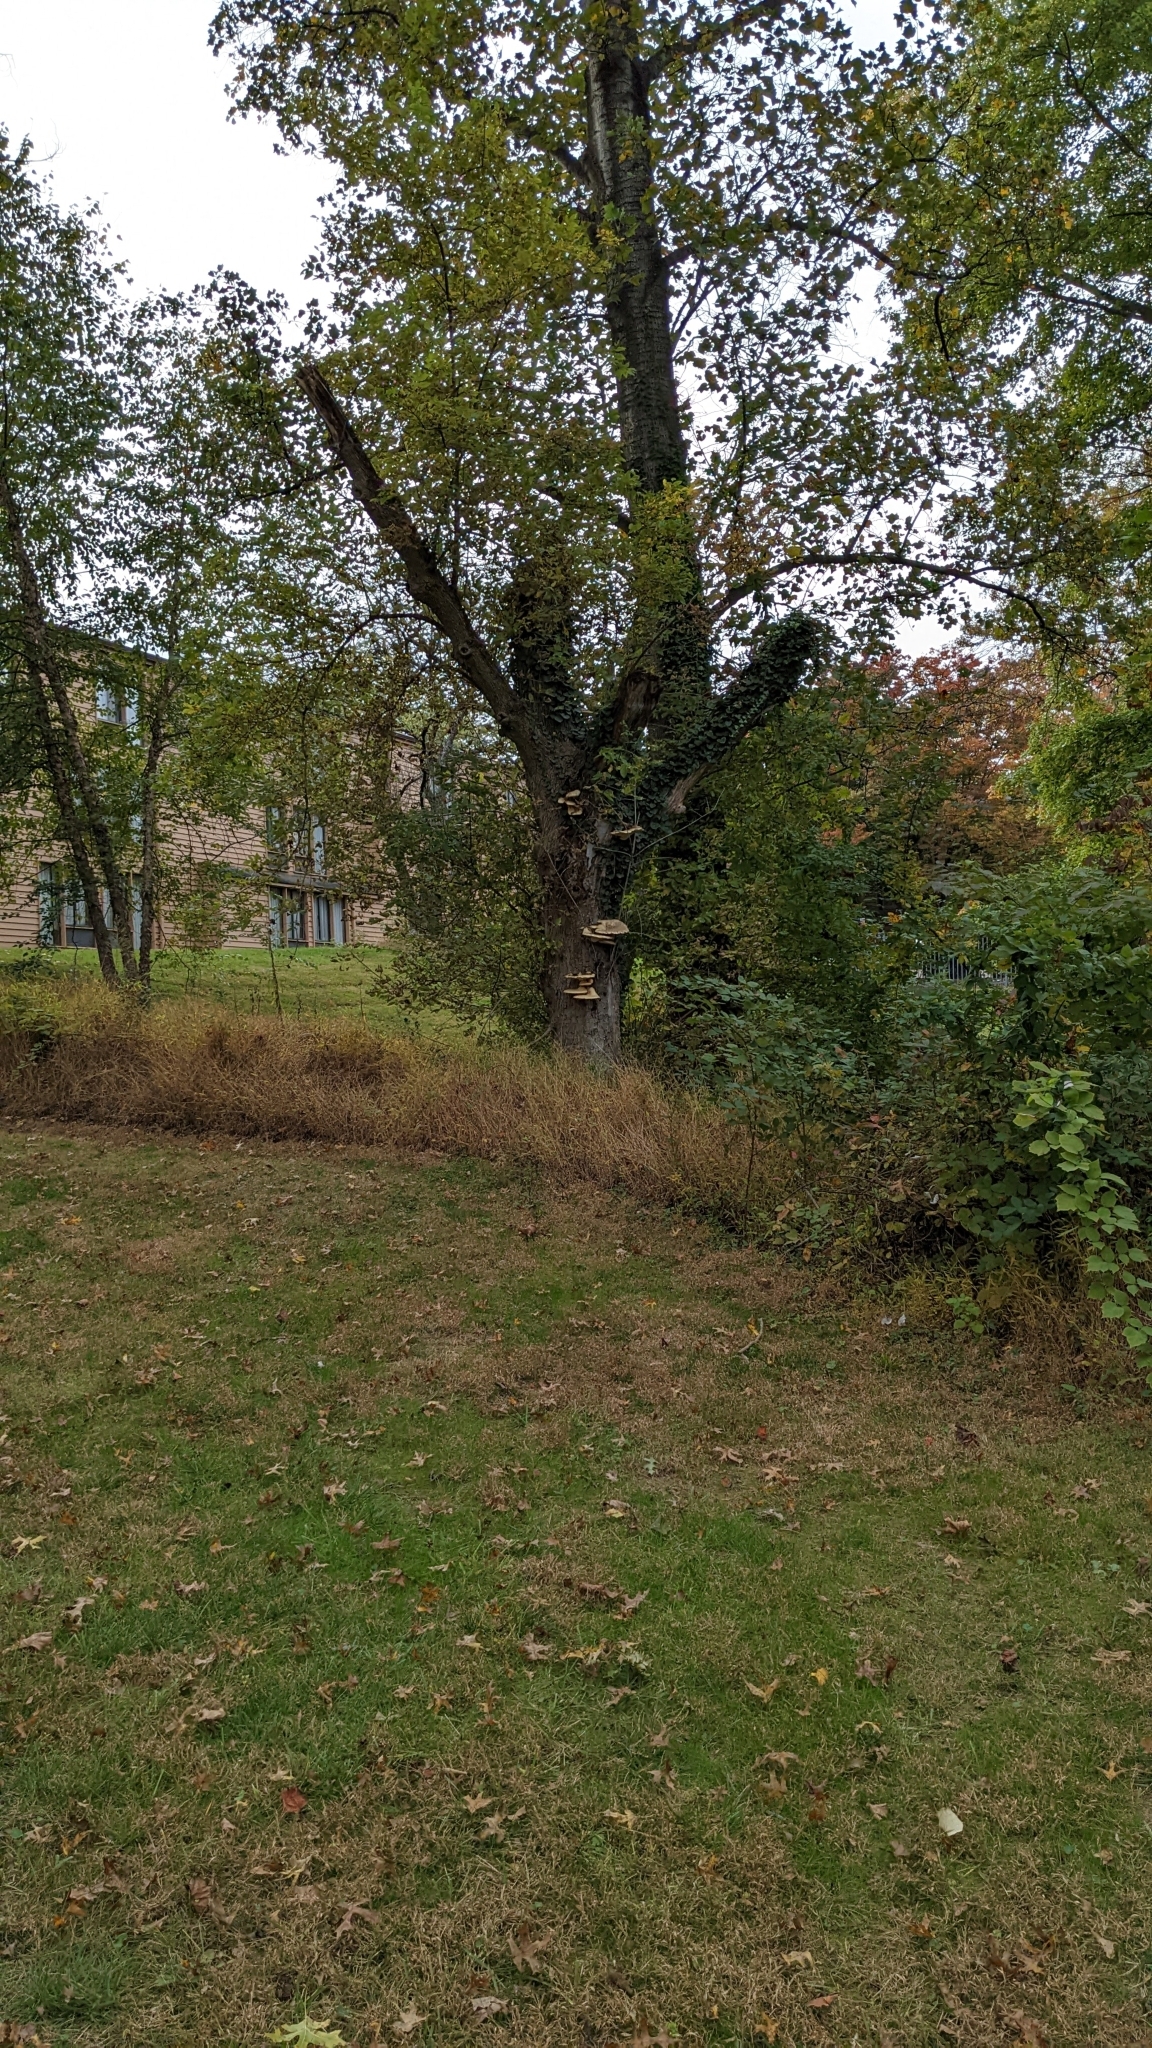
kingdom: Fungi
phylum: Basidiomycota
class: Agaricomycetes
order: Polyporales
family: Polyporaceae
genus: Cerioporus
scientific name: Cerioporus squamosus
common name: Dryad's saddle
